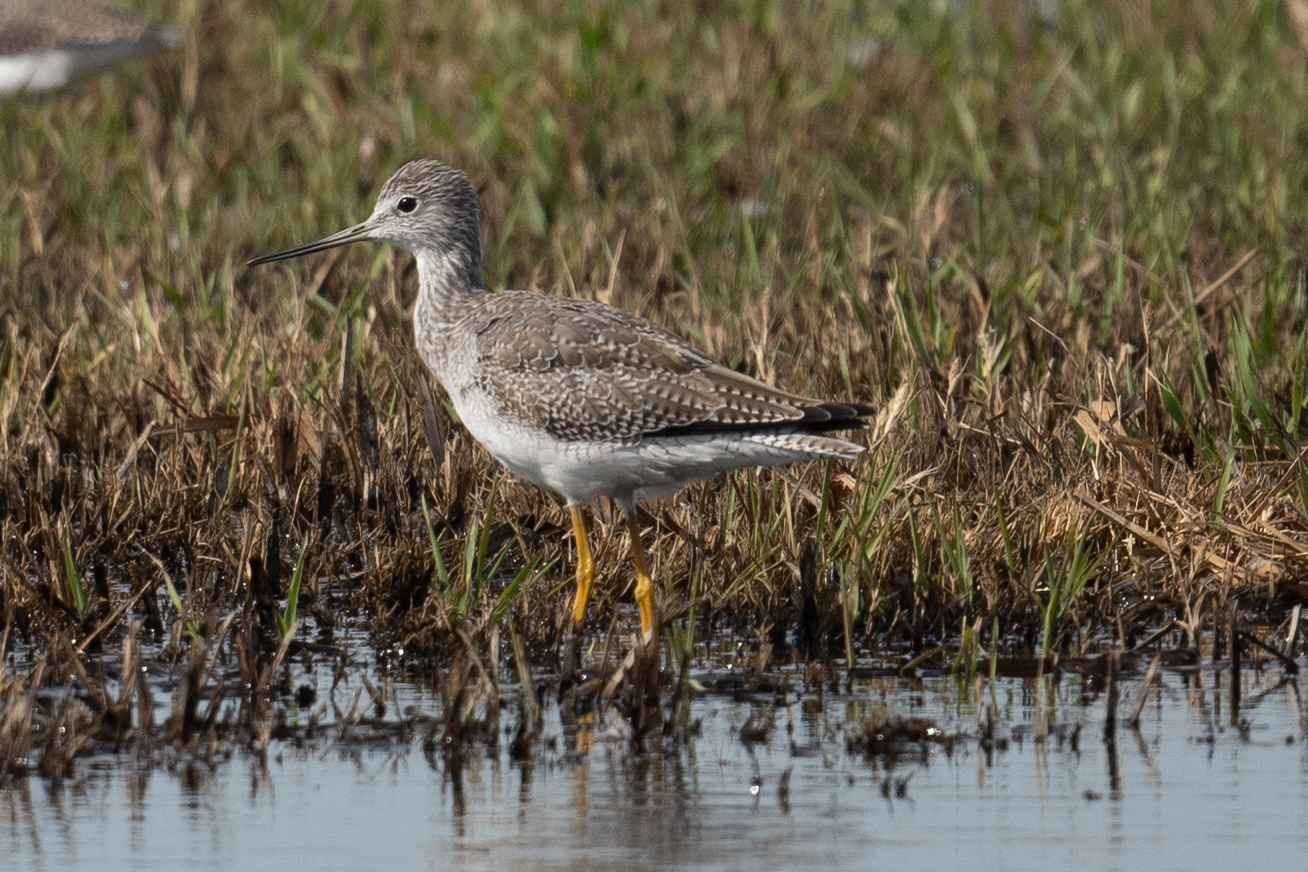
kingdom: Animalia
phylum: Chordata
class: Aves
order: Charadriiformes
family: Scolopacidae
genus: Tringa
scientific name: Tringa melanoleuca
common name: Greater yellowlegs
